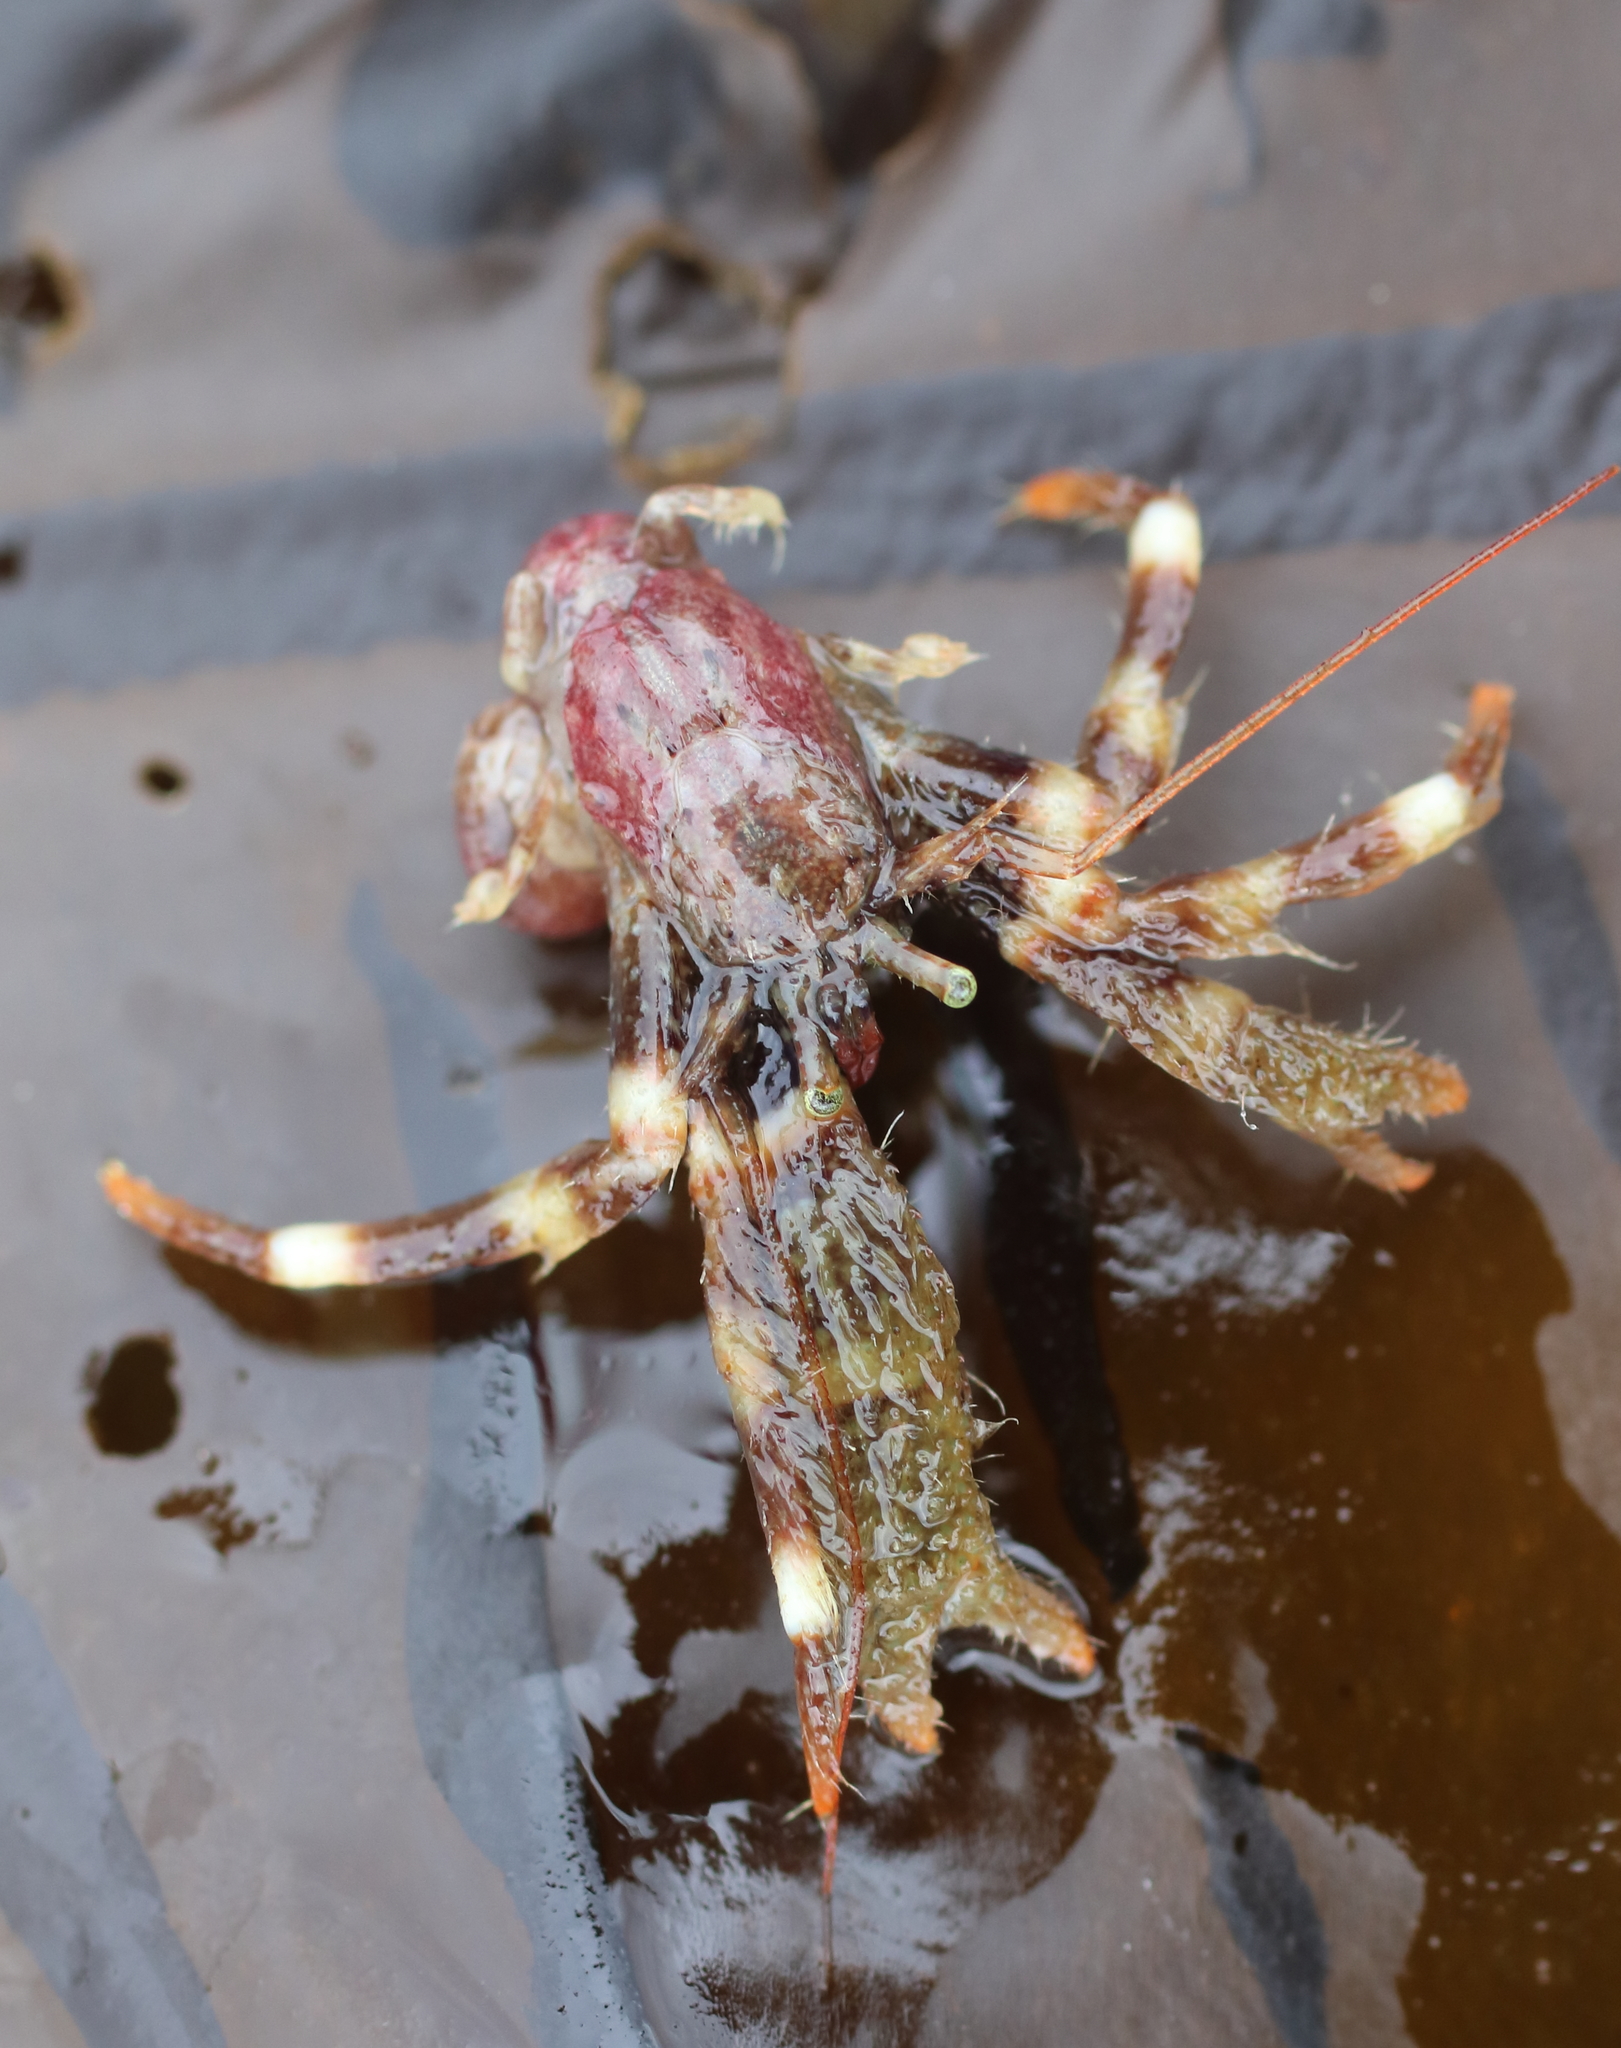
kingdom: Animalia
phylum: Arthropoda
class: Malacostraca
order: Decapoda
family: Paguridae
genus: Pagurus
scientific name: Pagurus caurinus
